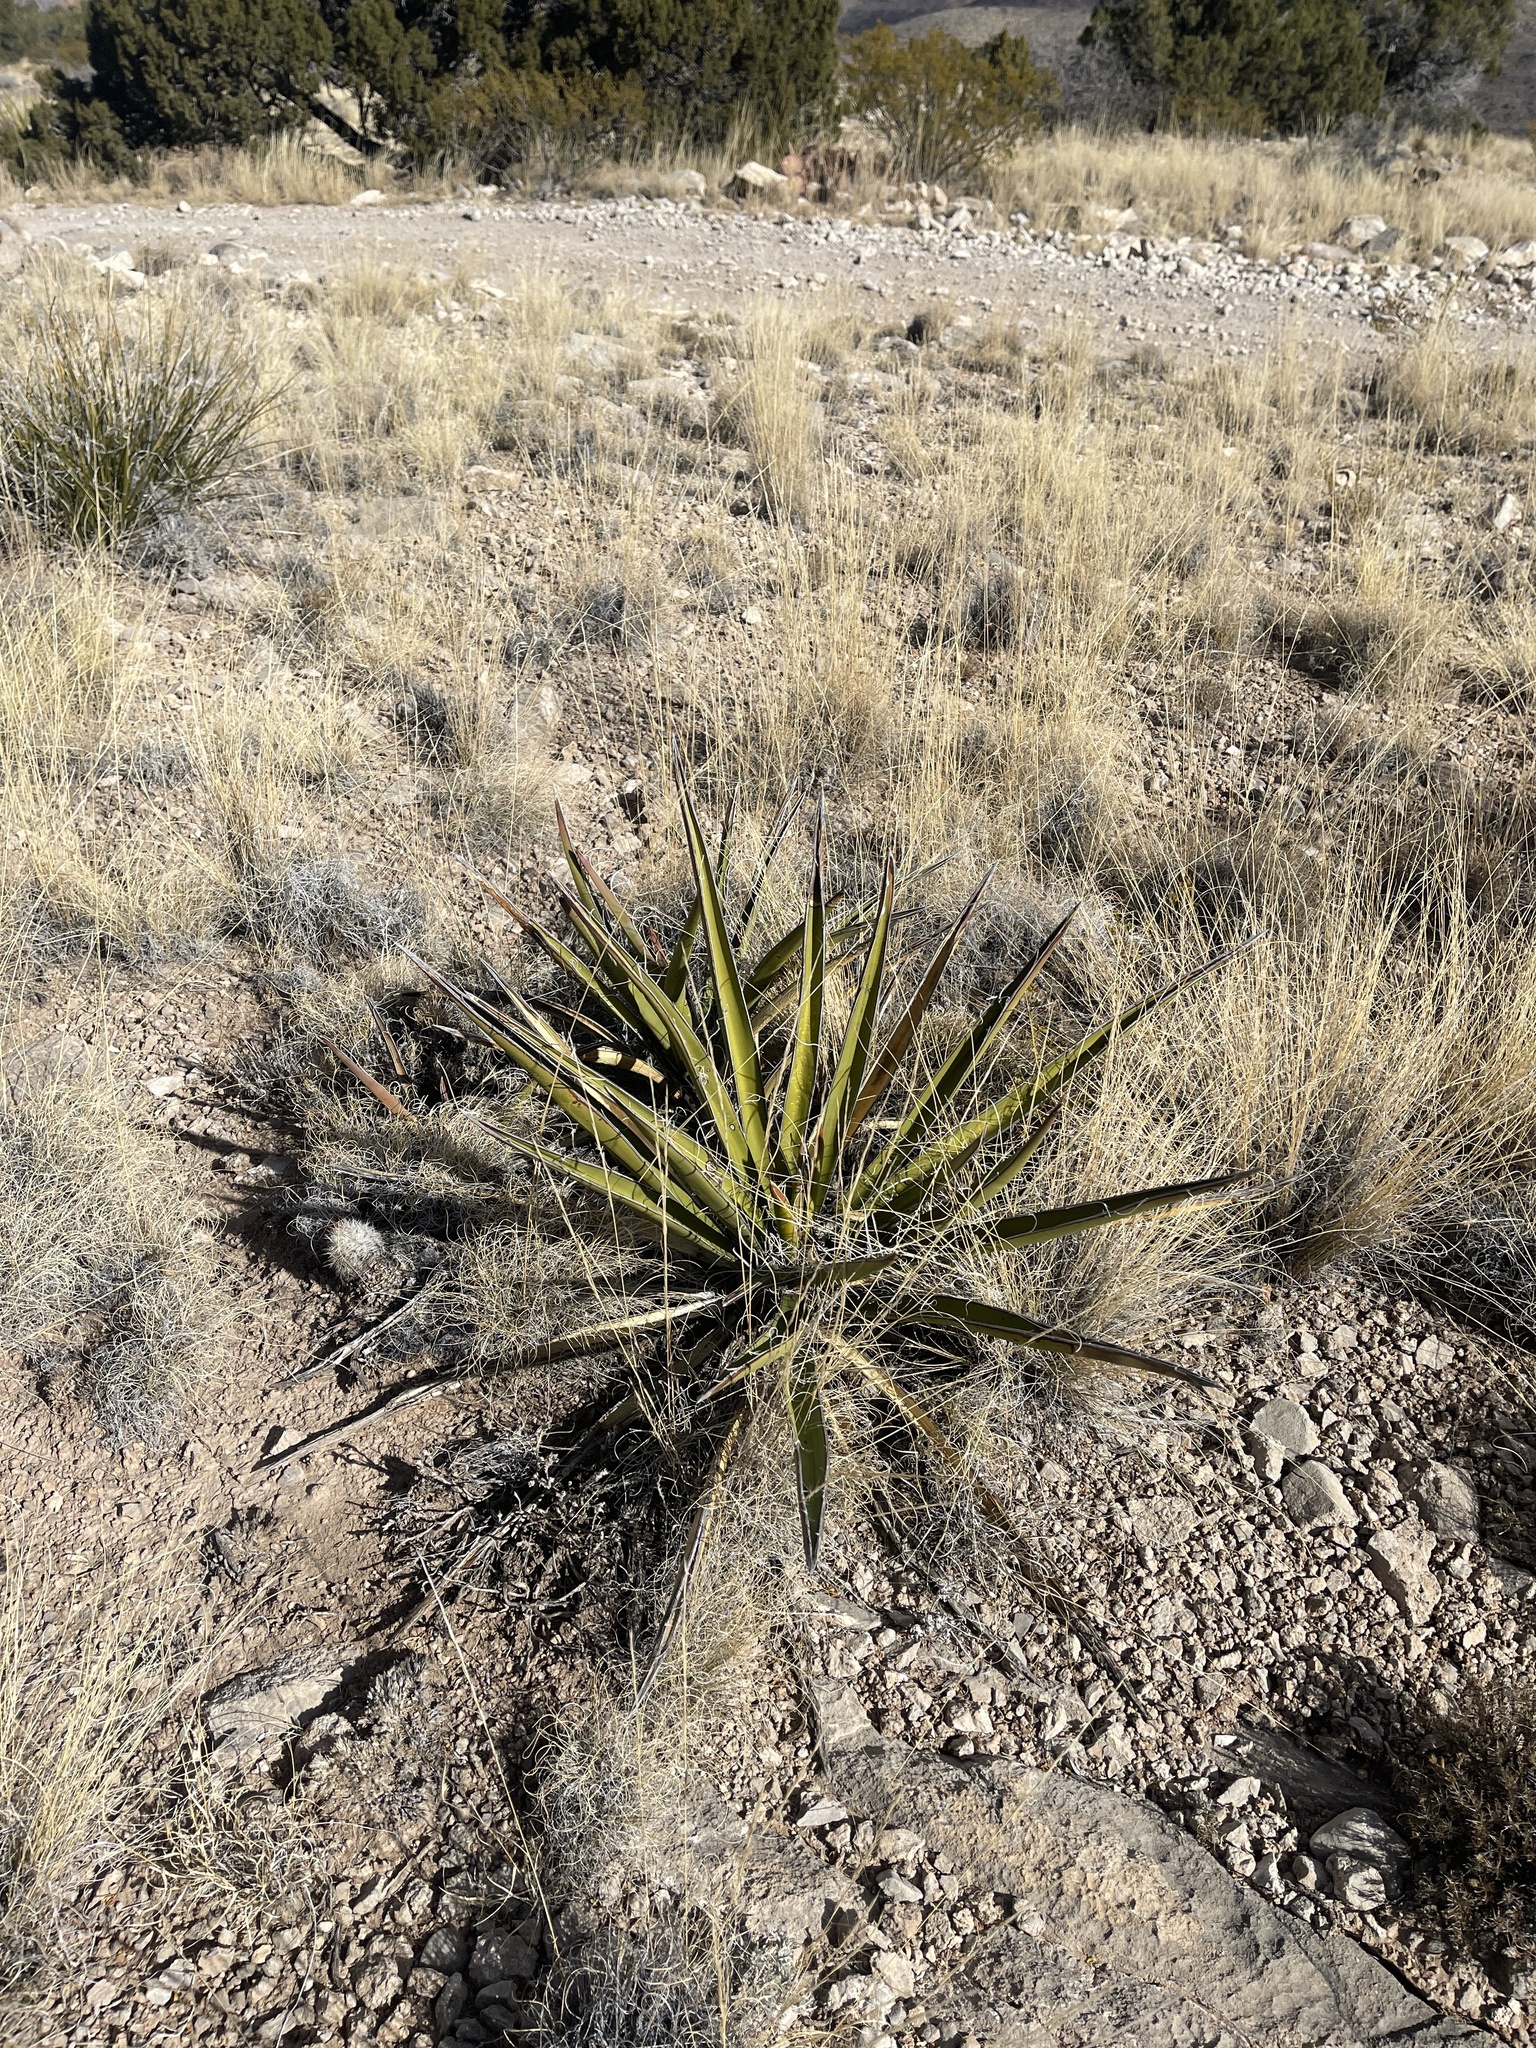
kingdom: Plantae
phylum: Tracheophyta
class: Liliopsida
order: Asparagales
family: Asparagaceae
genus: Yucca
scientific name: Yucca baccata
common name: Banana yucca
